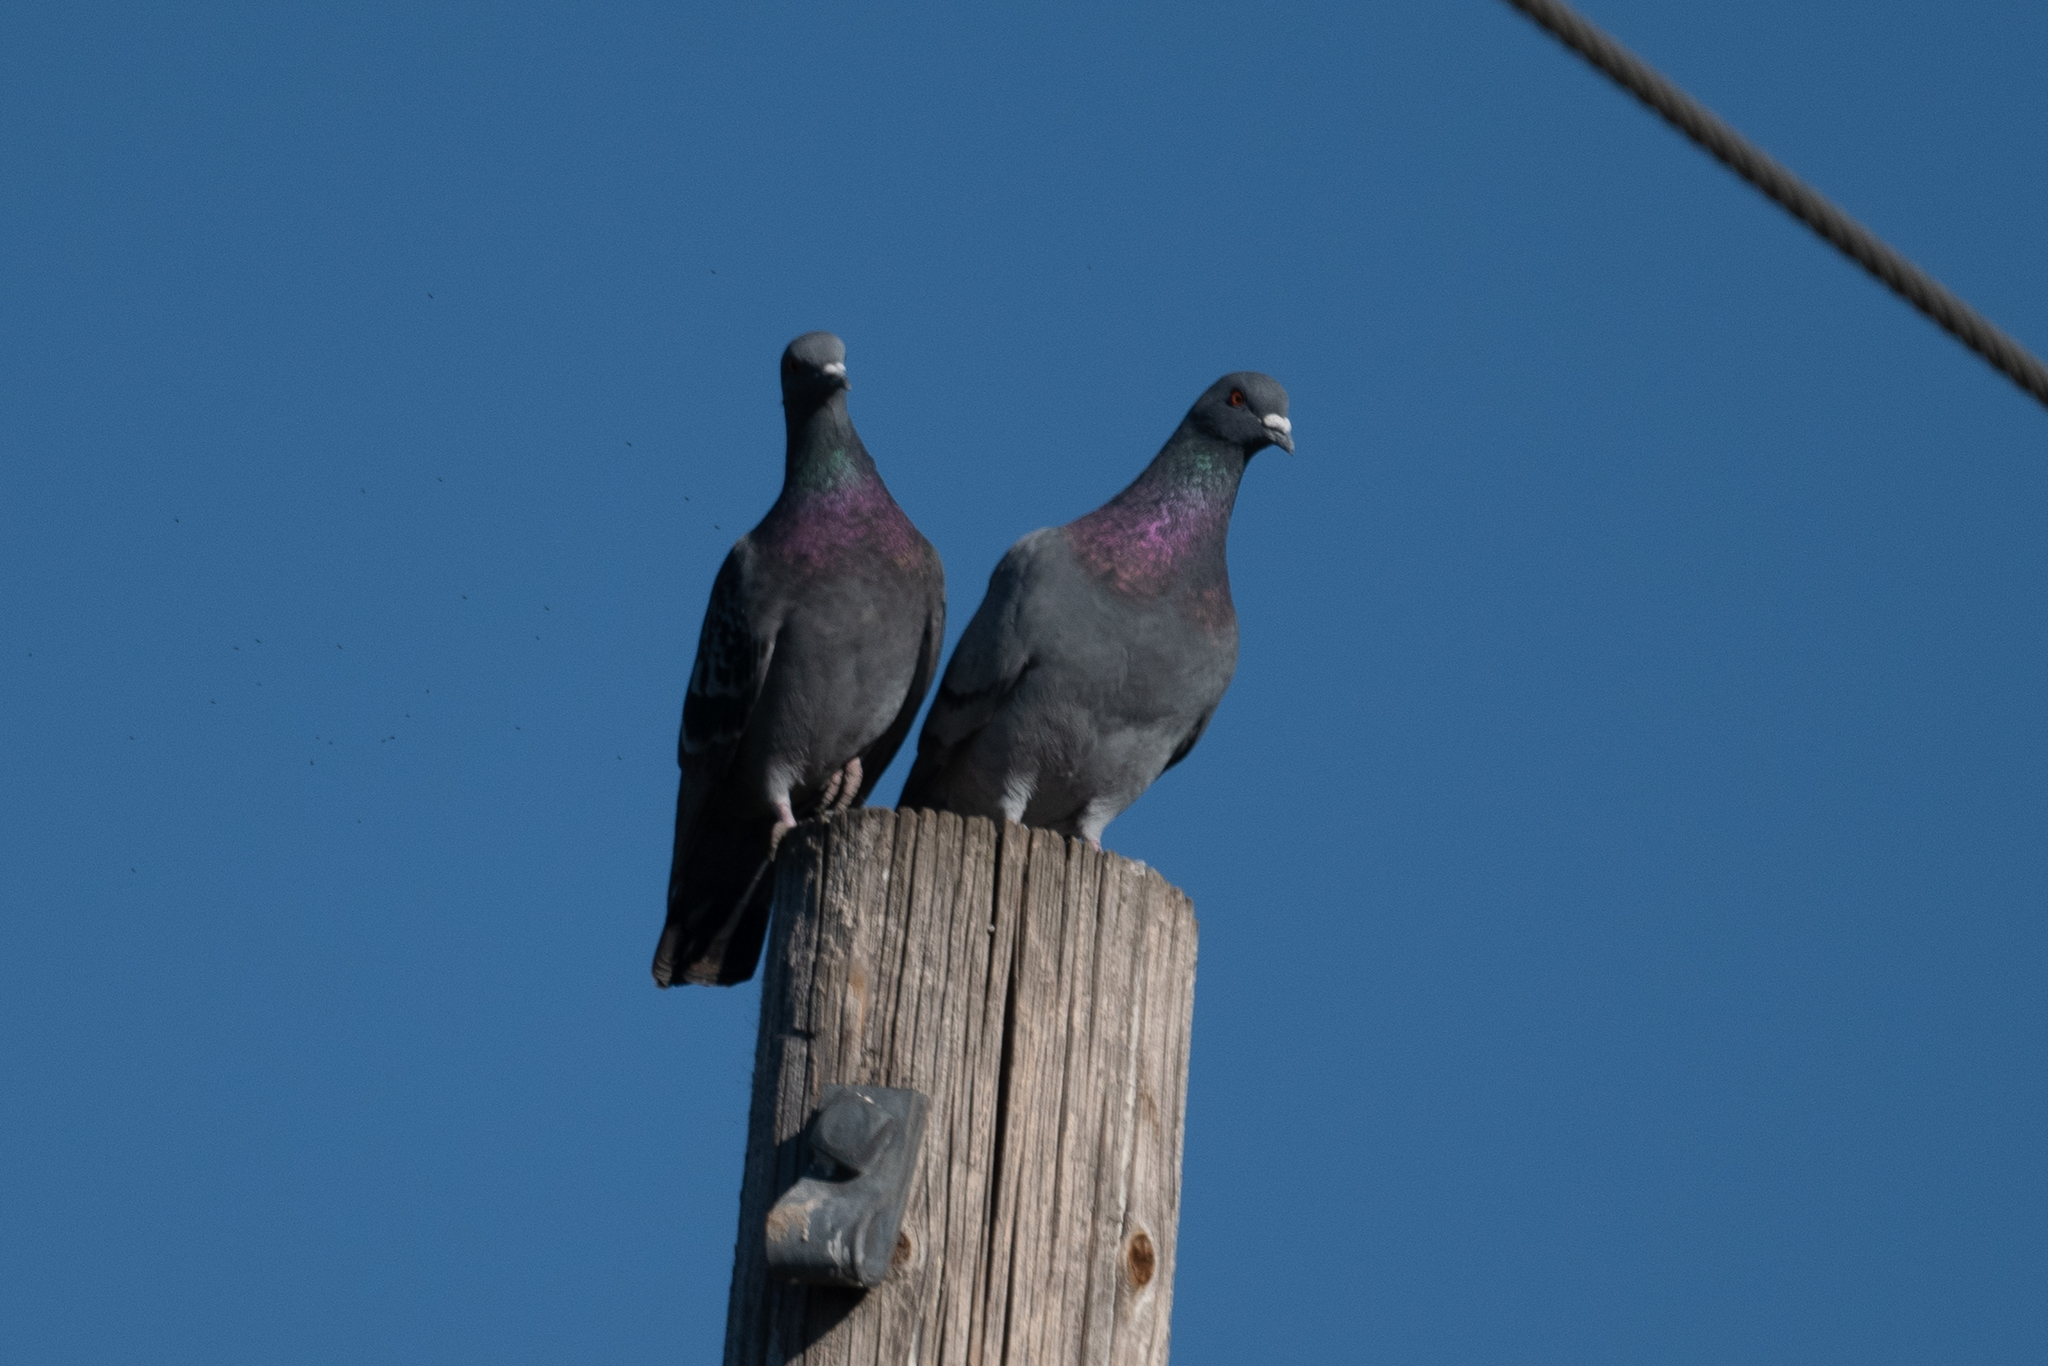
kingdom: Animalia
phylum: Chordata
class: Aves
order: Columbiformes
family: Columbidae
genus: Columba
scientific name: Columba livia
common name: Rock pigeon
